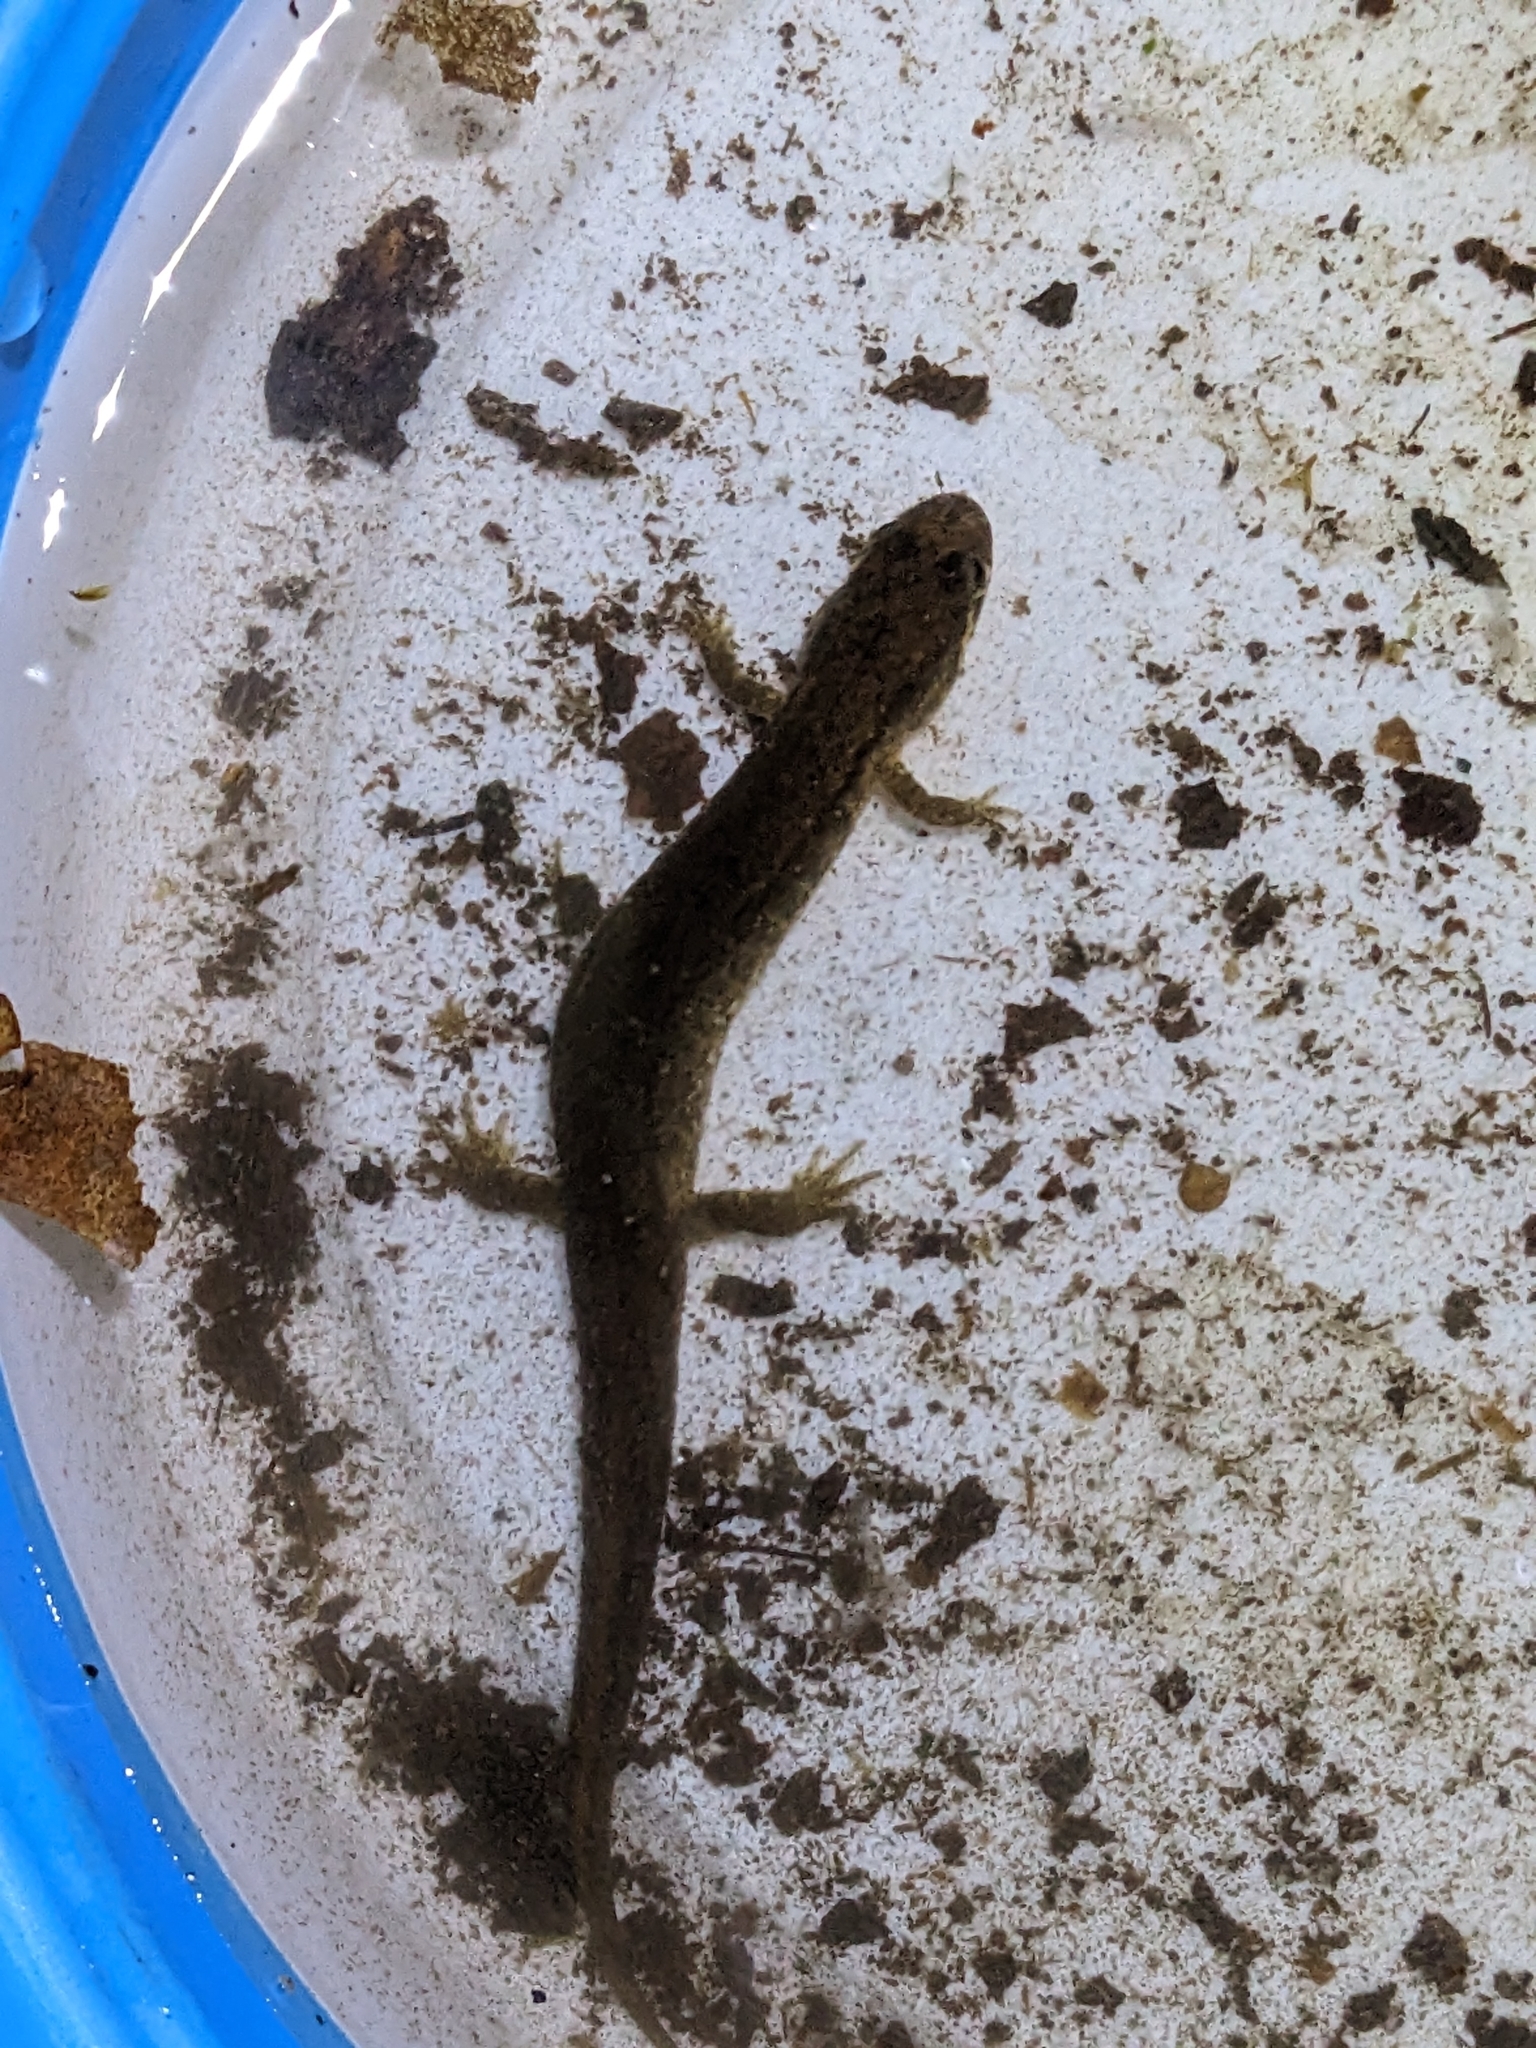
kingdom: Animalia
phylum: Chordata
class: Amphibia
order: Caudata
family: Plethodontidae
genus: Desmognathus
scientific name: Desmognathus fuscus
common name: Northern dusky salamander
